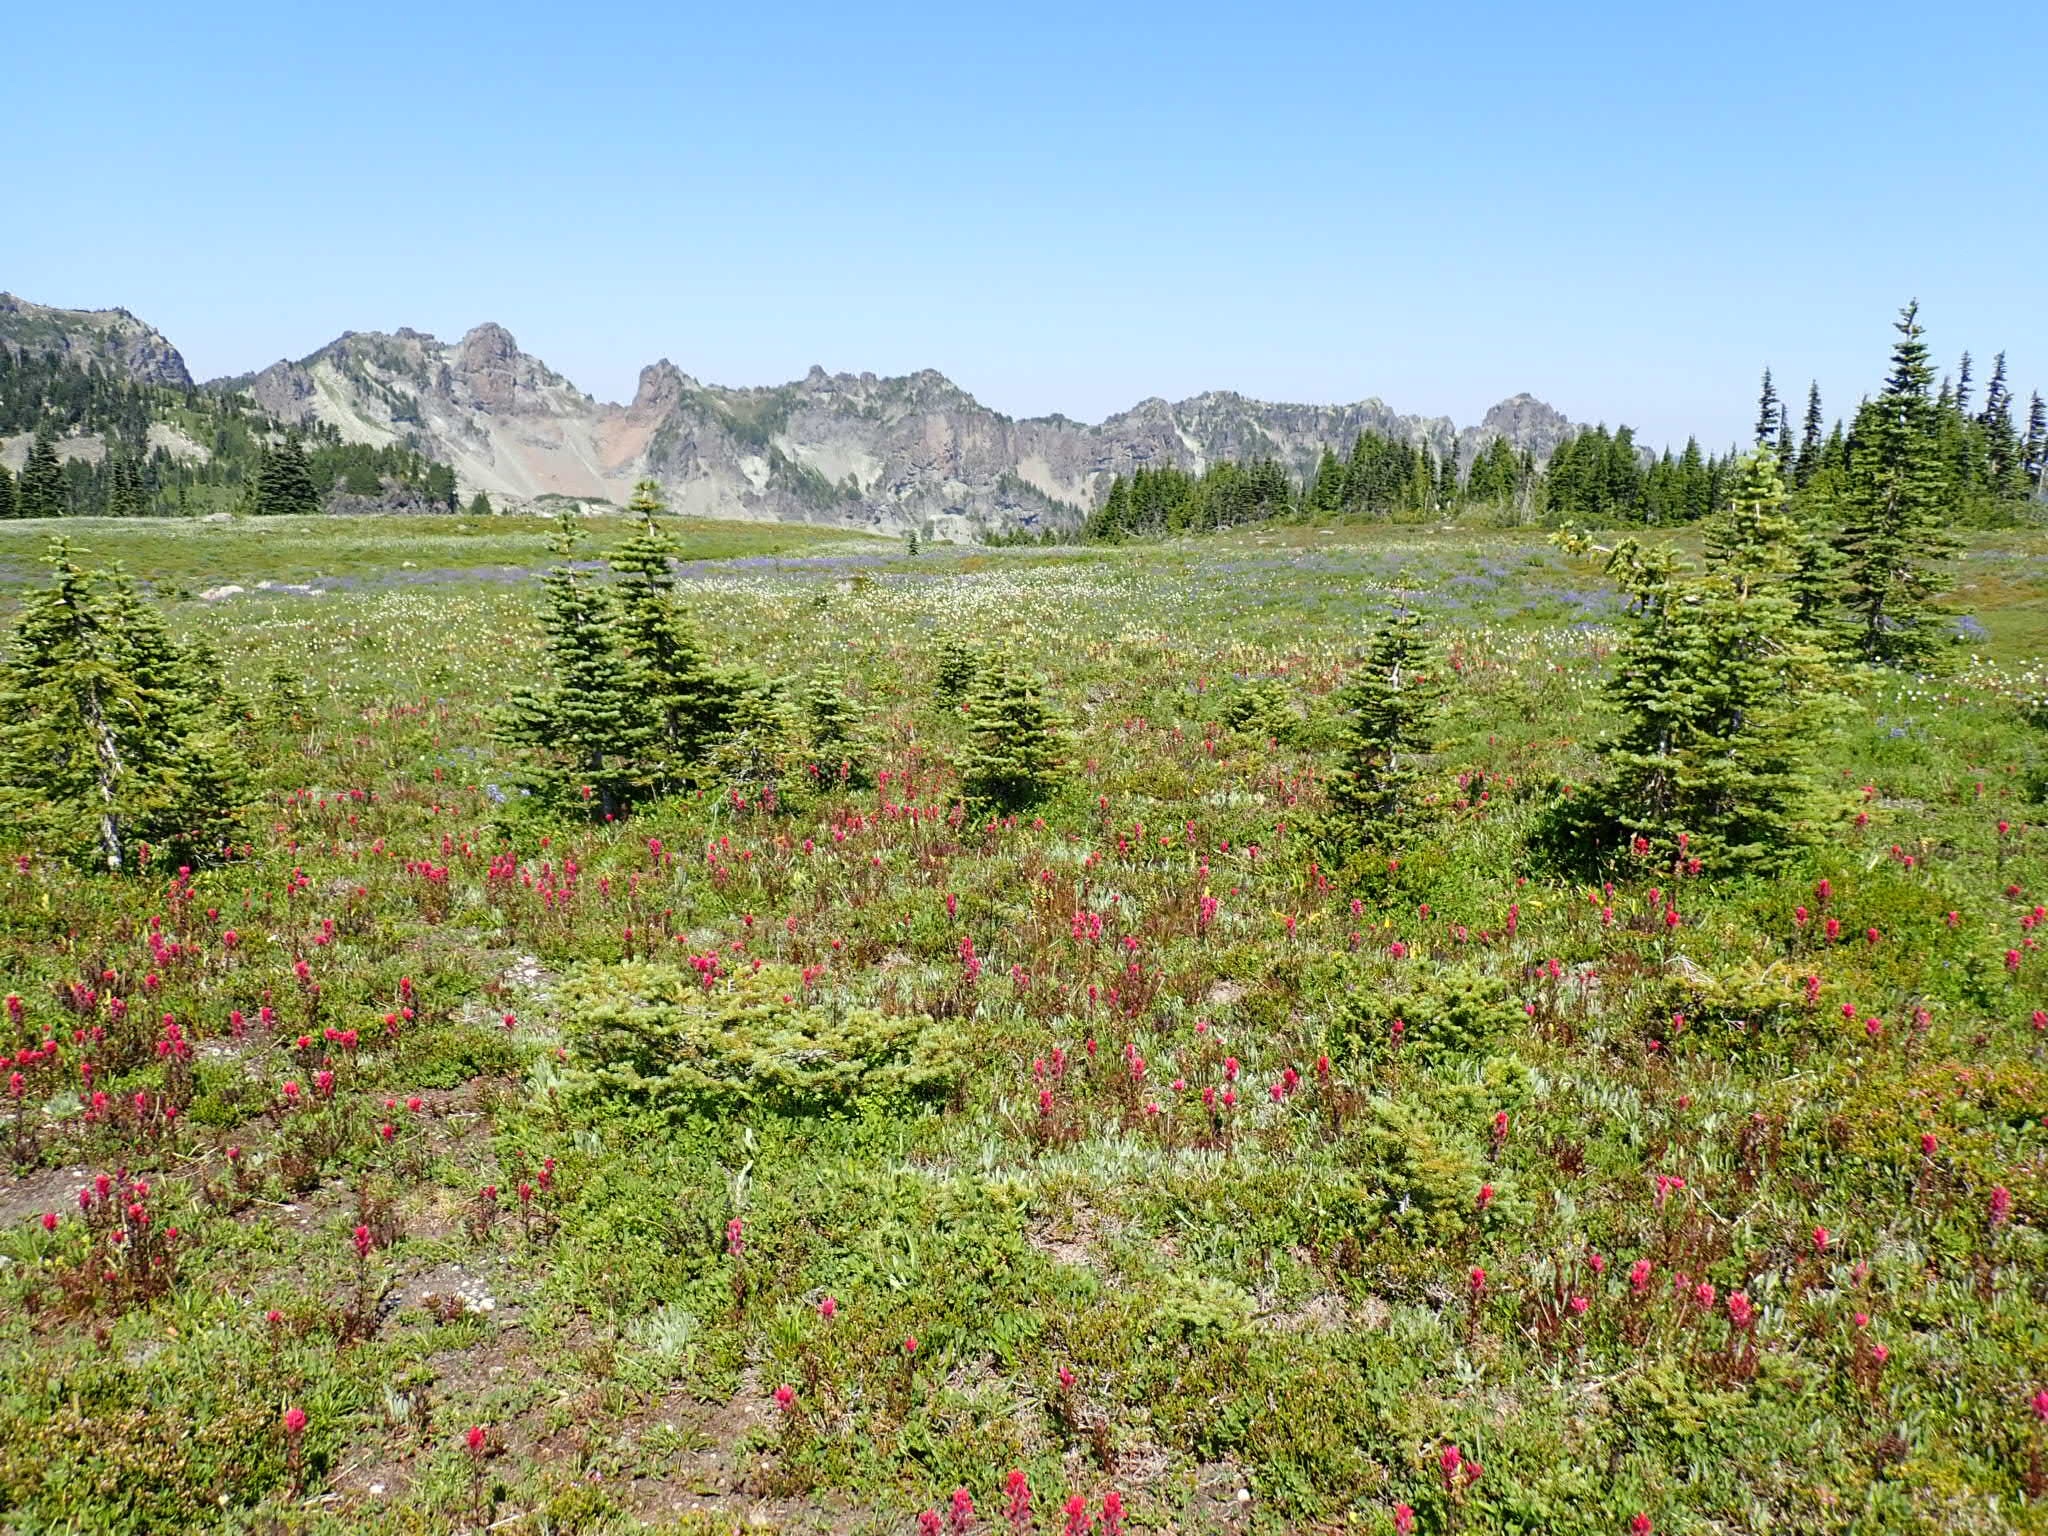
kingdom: Plantae
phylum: Tracheophyta
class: Magnoliopsida
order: Lamiales
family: Orobanchaceae
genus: Pedicularis
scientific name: Pedicularis contorta
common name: Coiled lousewort
